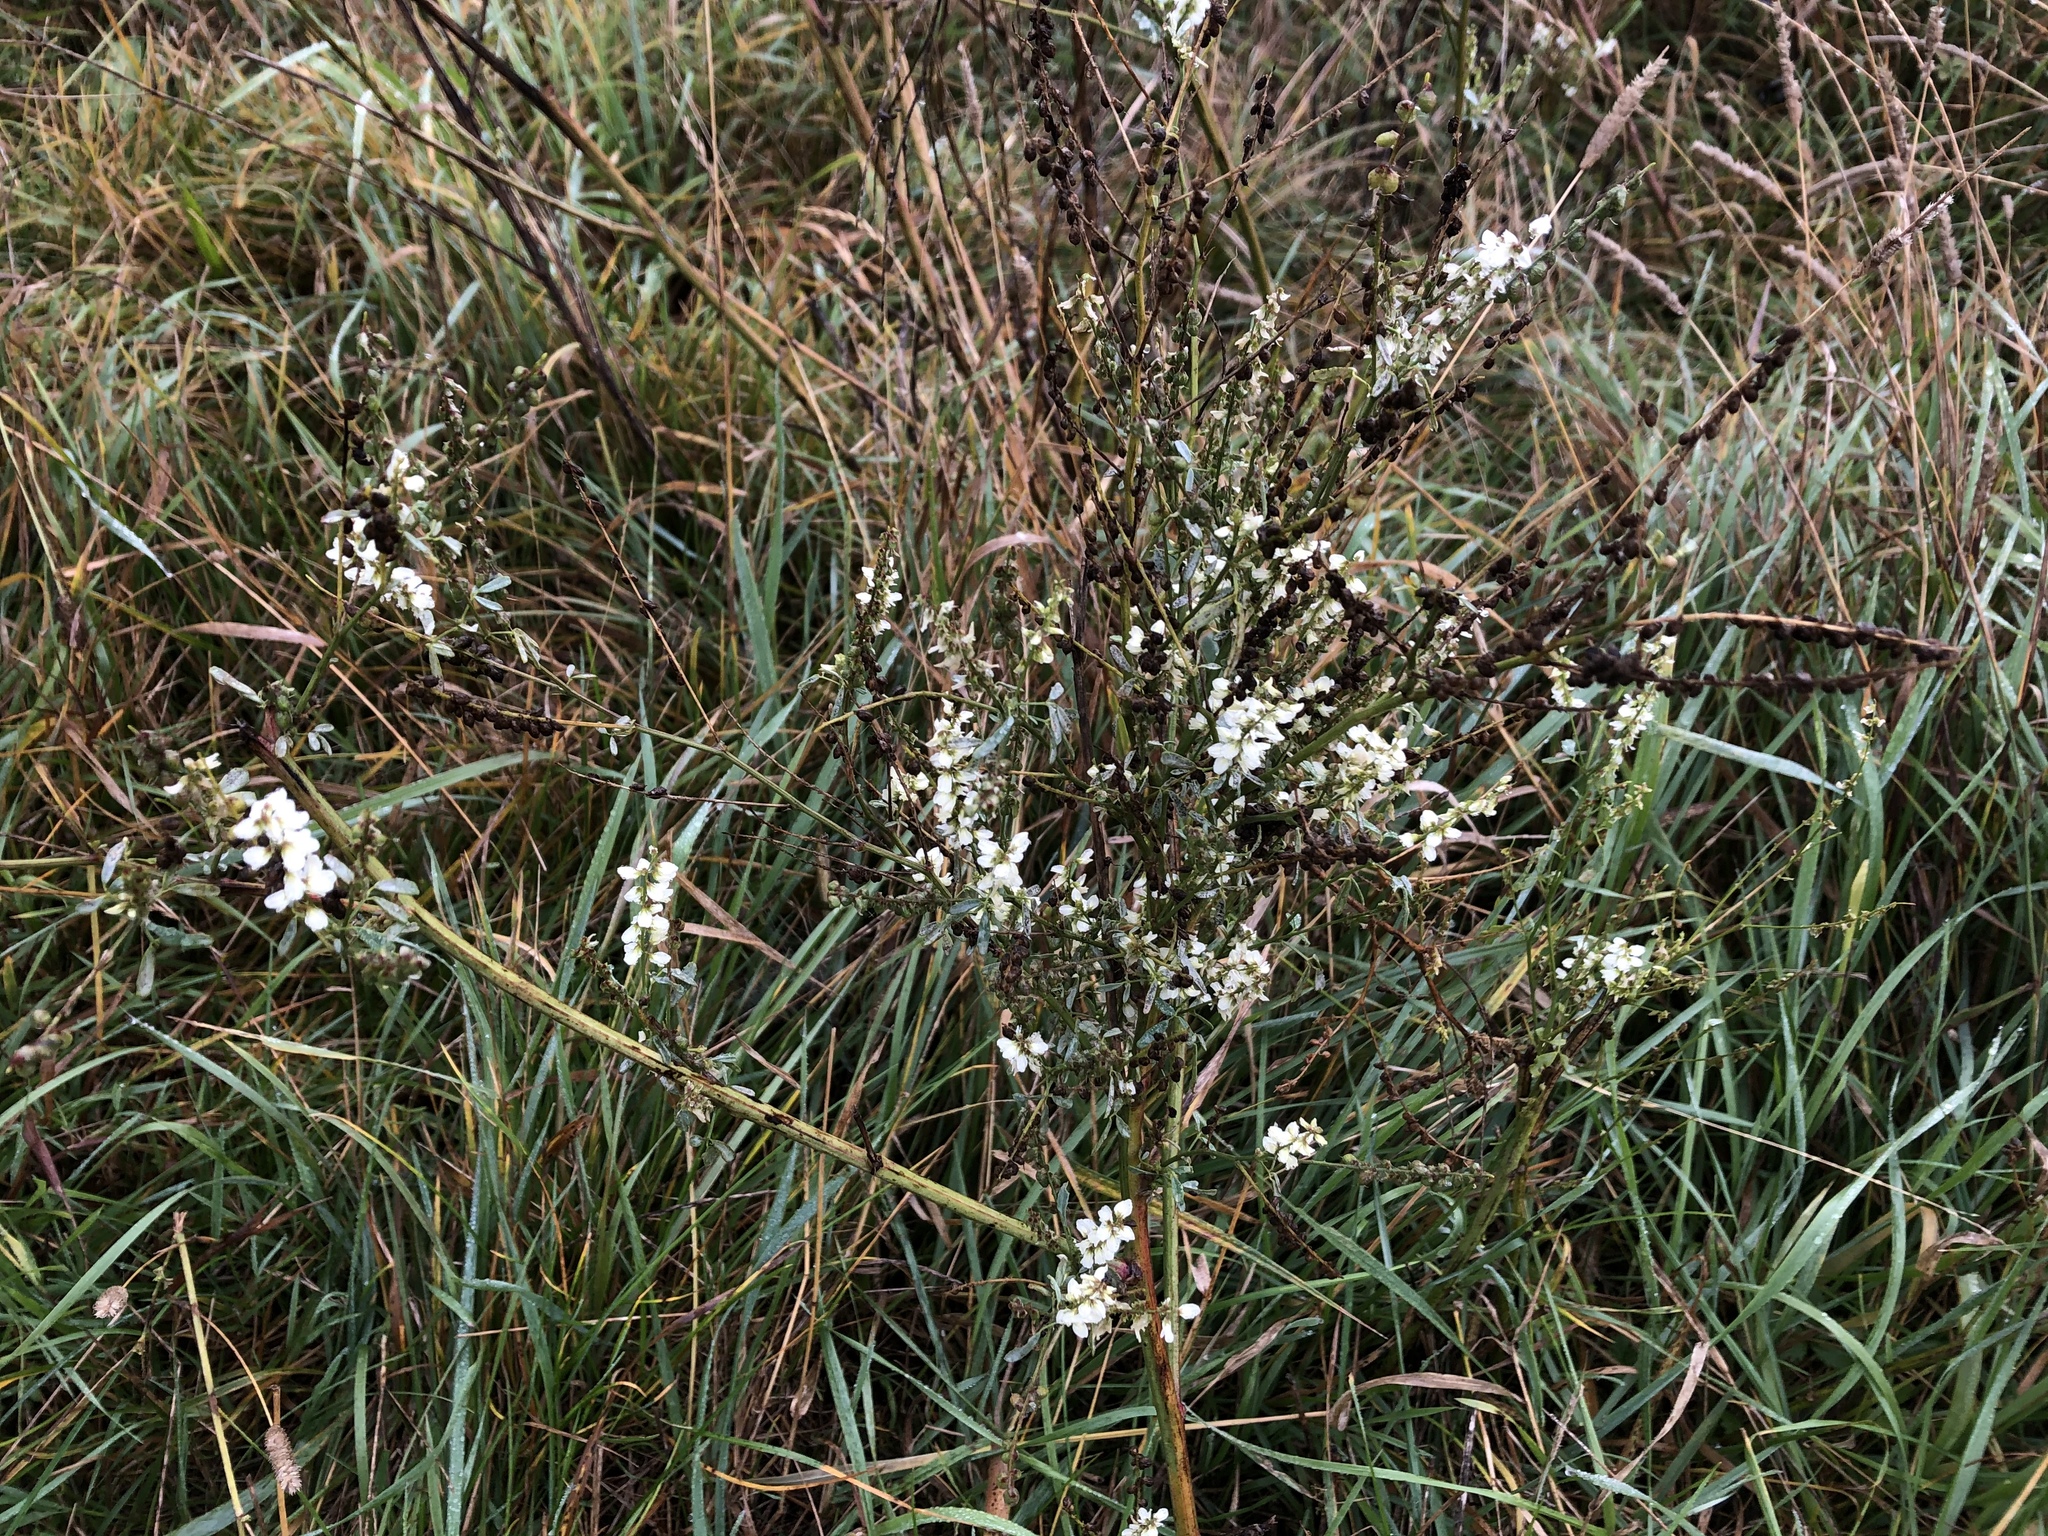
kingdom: Plantae
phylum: Tracheophyta
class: Magnoliopsida
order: Fabales
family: Fabaceae
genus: Melilotus
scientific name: Melilotus albus
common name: White melilot
